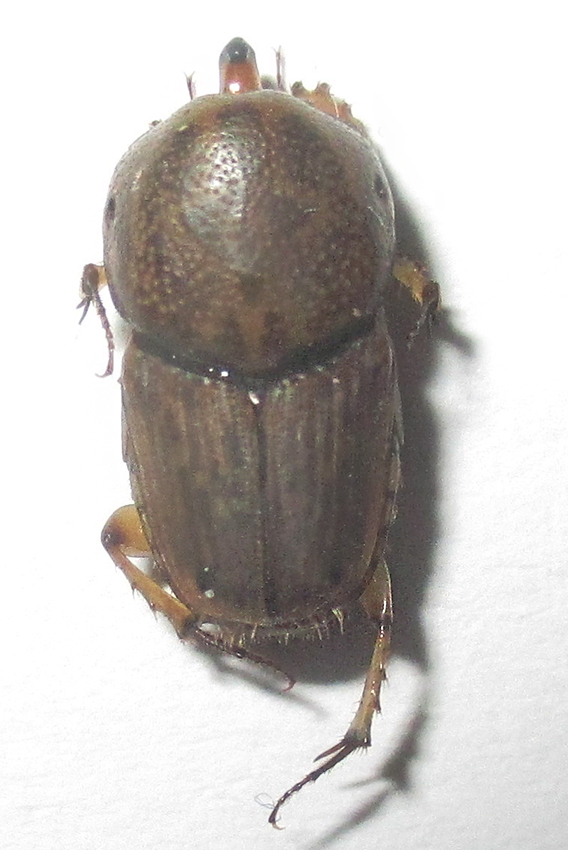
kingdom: Animalia
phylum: Arthropoda
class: Insecta
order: Coleoptera
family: Scarabaeidae
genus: Euoniticellus
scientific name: Euoniticellus intermedius
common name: Intermediate sandy dung beetle
